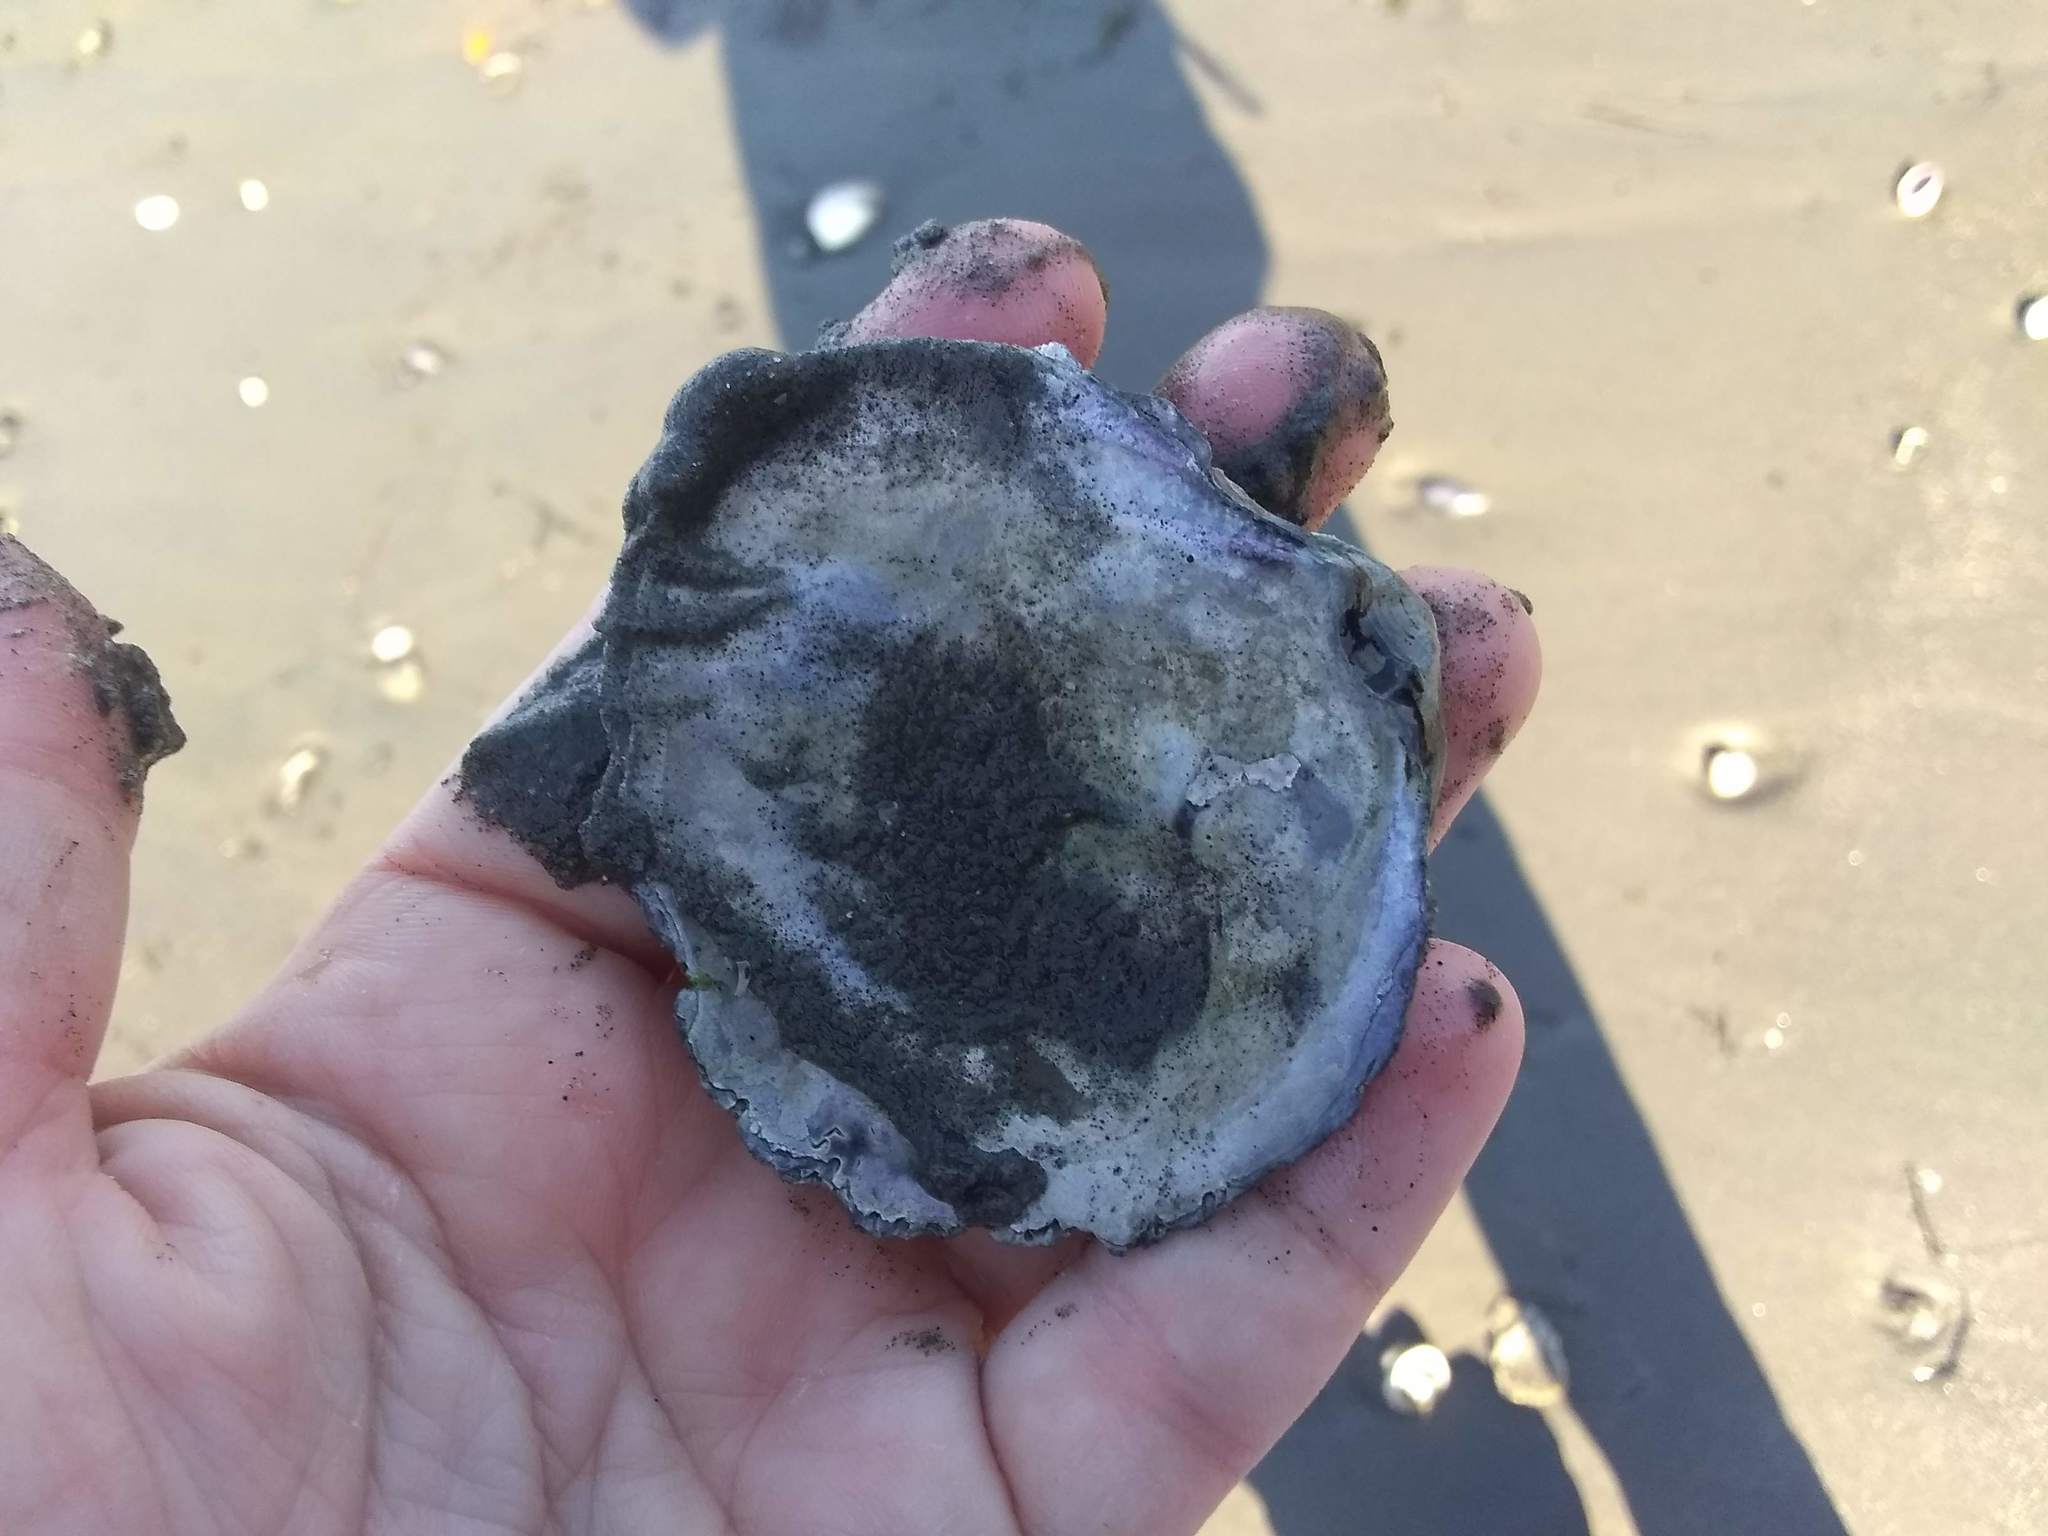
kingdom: Animalia
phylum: Mollusca
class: Bivalvia
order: Ostreida
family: Ostreidae
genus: Ostrea
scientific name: Ostrea edulis
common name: Flat oyster
